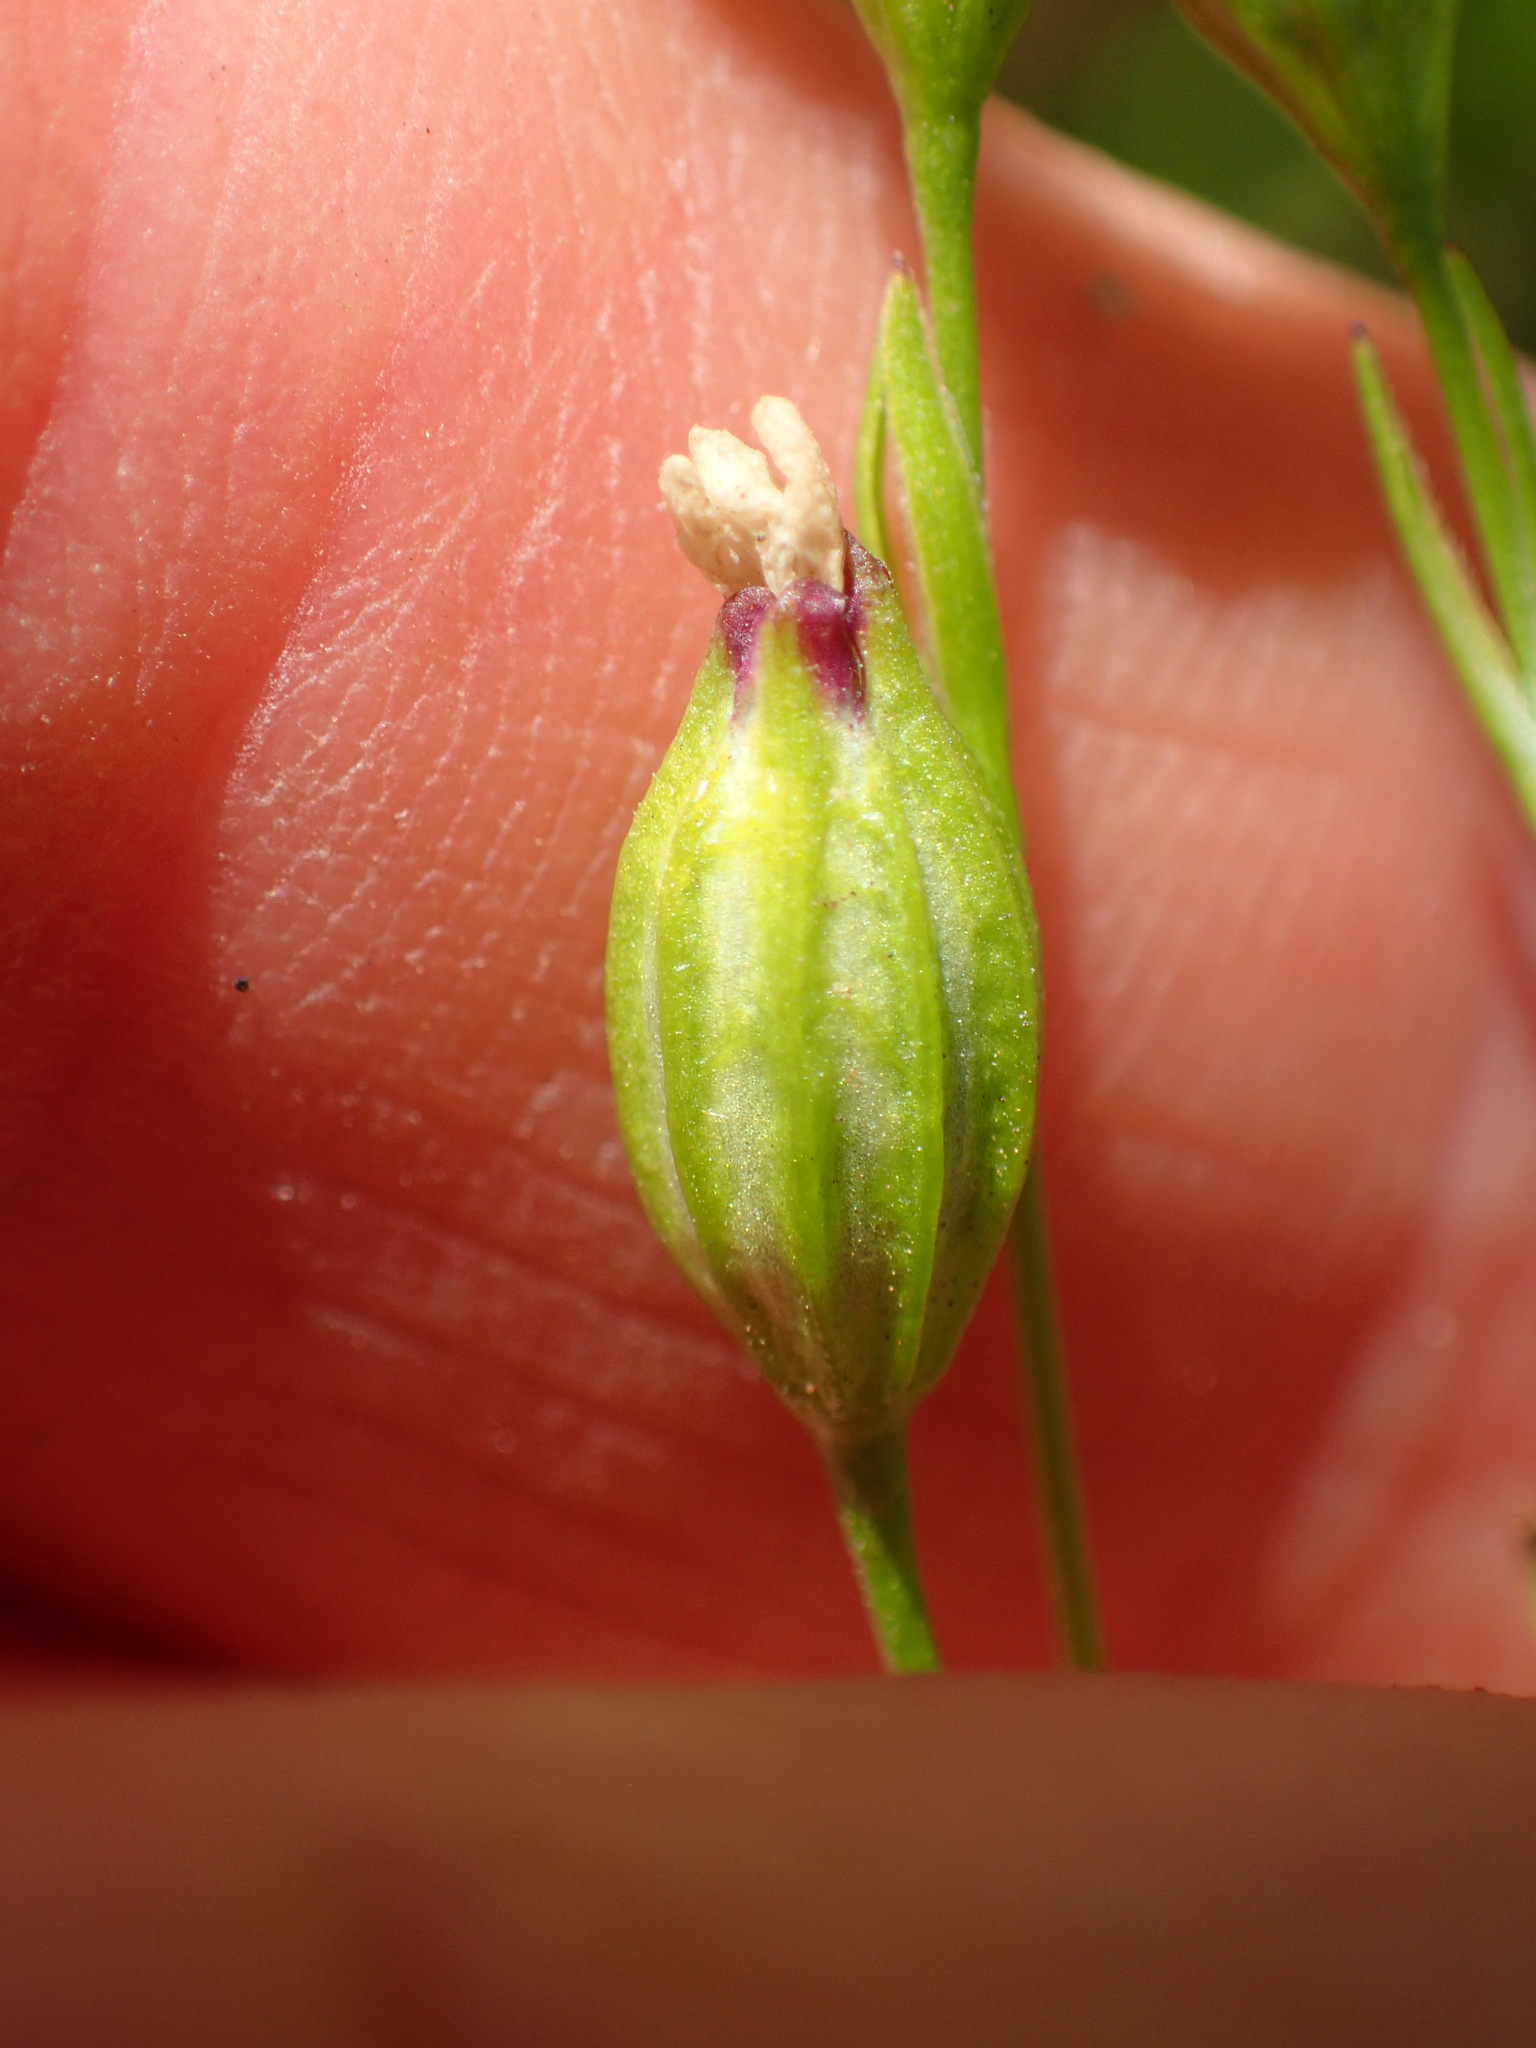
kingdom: Plantae
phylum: Tracheophyta
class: Magnoliopsida
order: Caryophyllales
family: Caryophyllaceae
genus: Silene
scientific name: Silene antirrhina
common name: Sleepy catchfly
